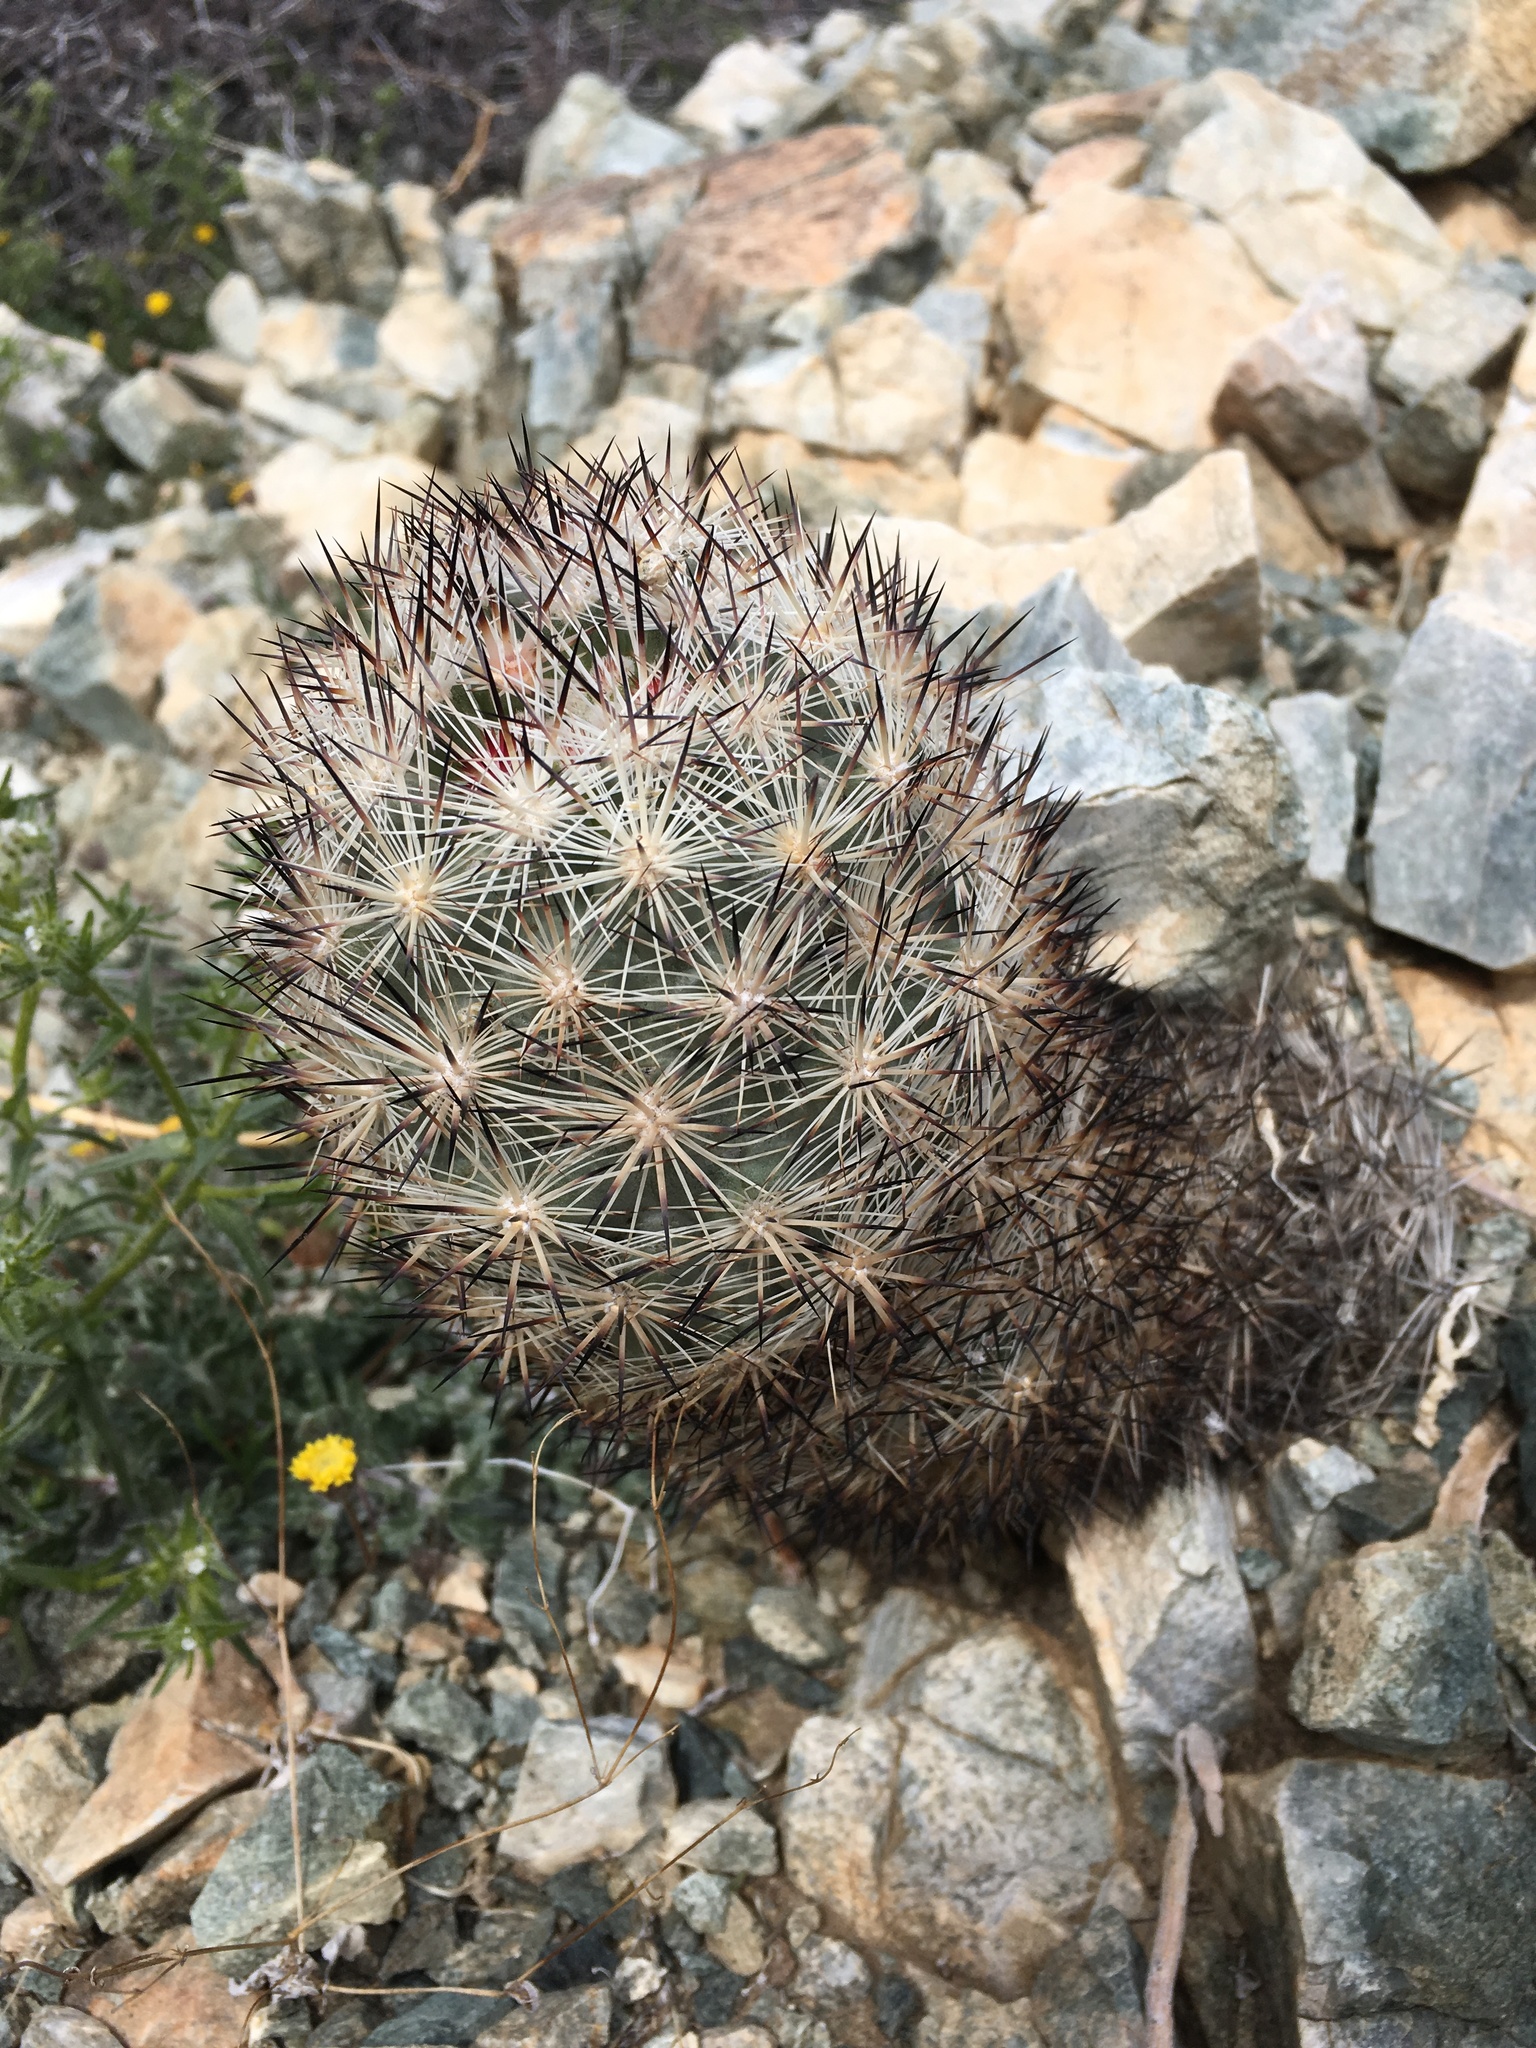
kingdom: Plantae
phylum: Tracheophyta
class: Magnoliopsida
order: Caryophyllales
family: Cactaceae
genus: Pelecyphora
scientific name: Pelecyphora alversonii
